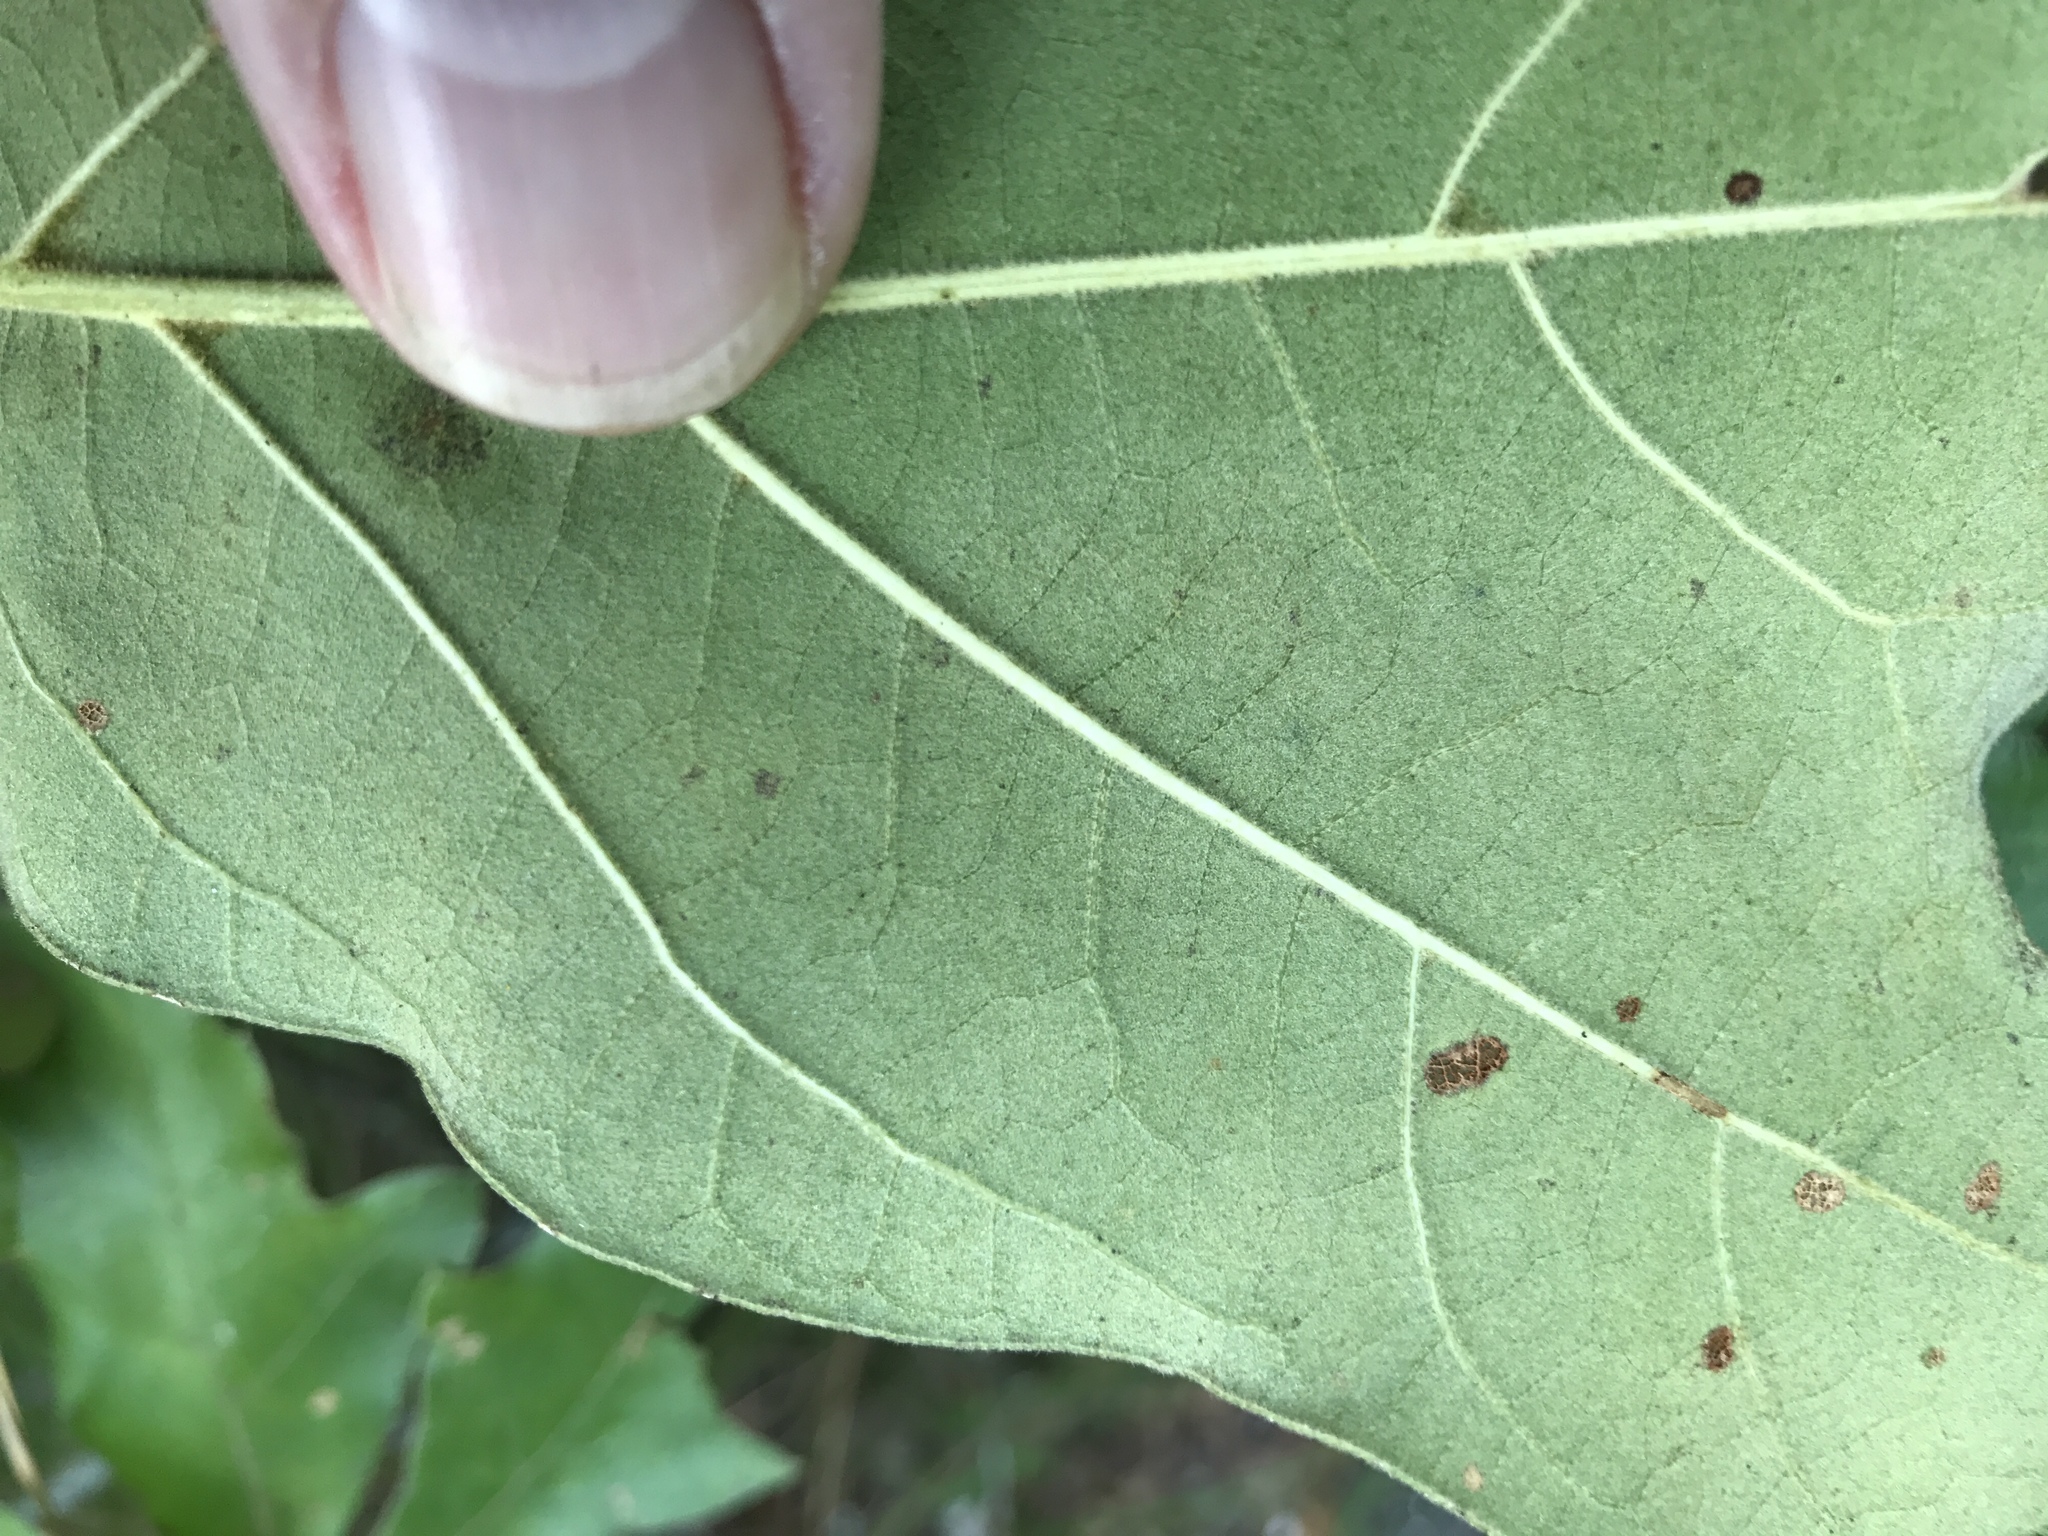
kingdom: Plantae
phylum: Tracheophyta
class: Magnoliopsida
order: Fagales
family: Fagaceae
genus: Quercus
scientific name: Quercus falcata
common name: Southern red oak
